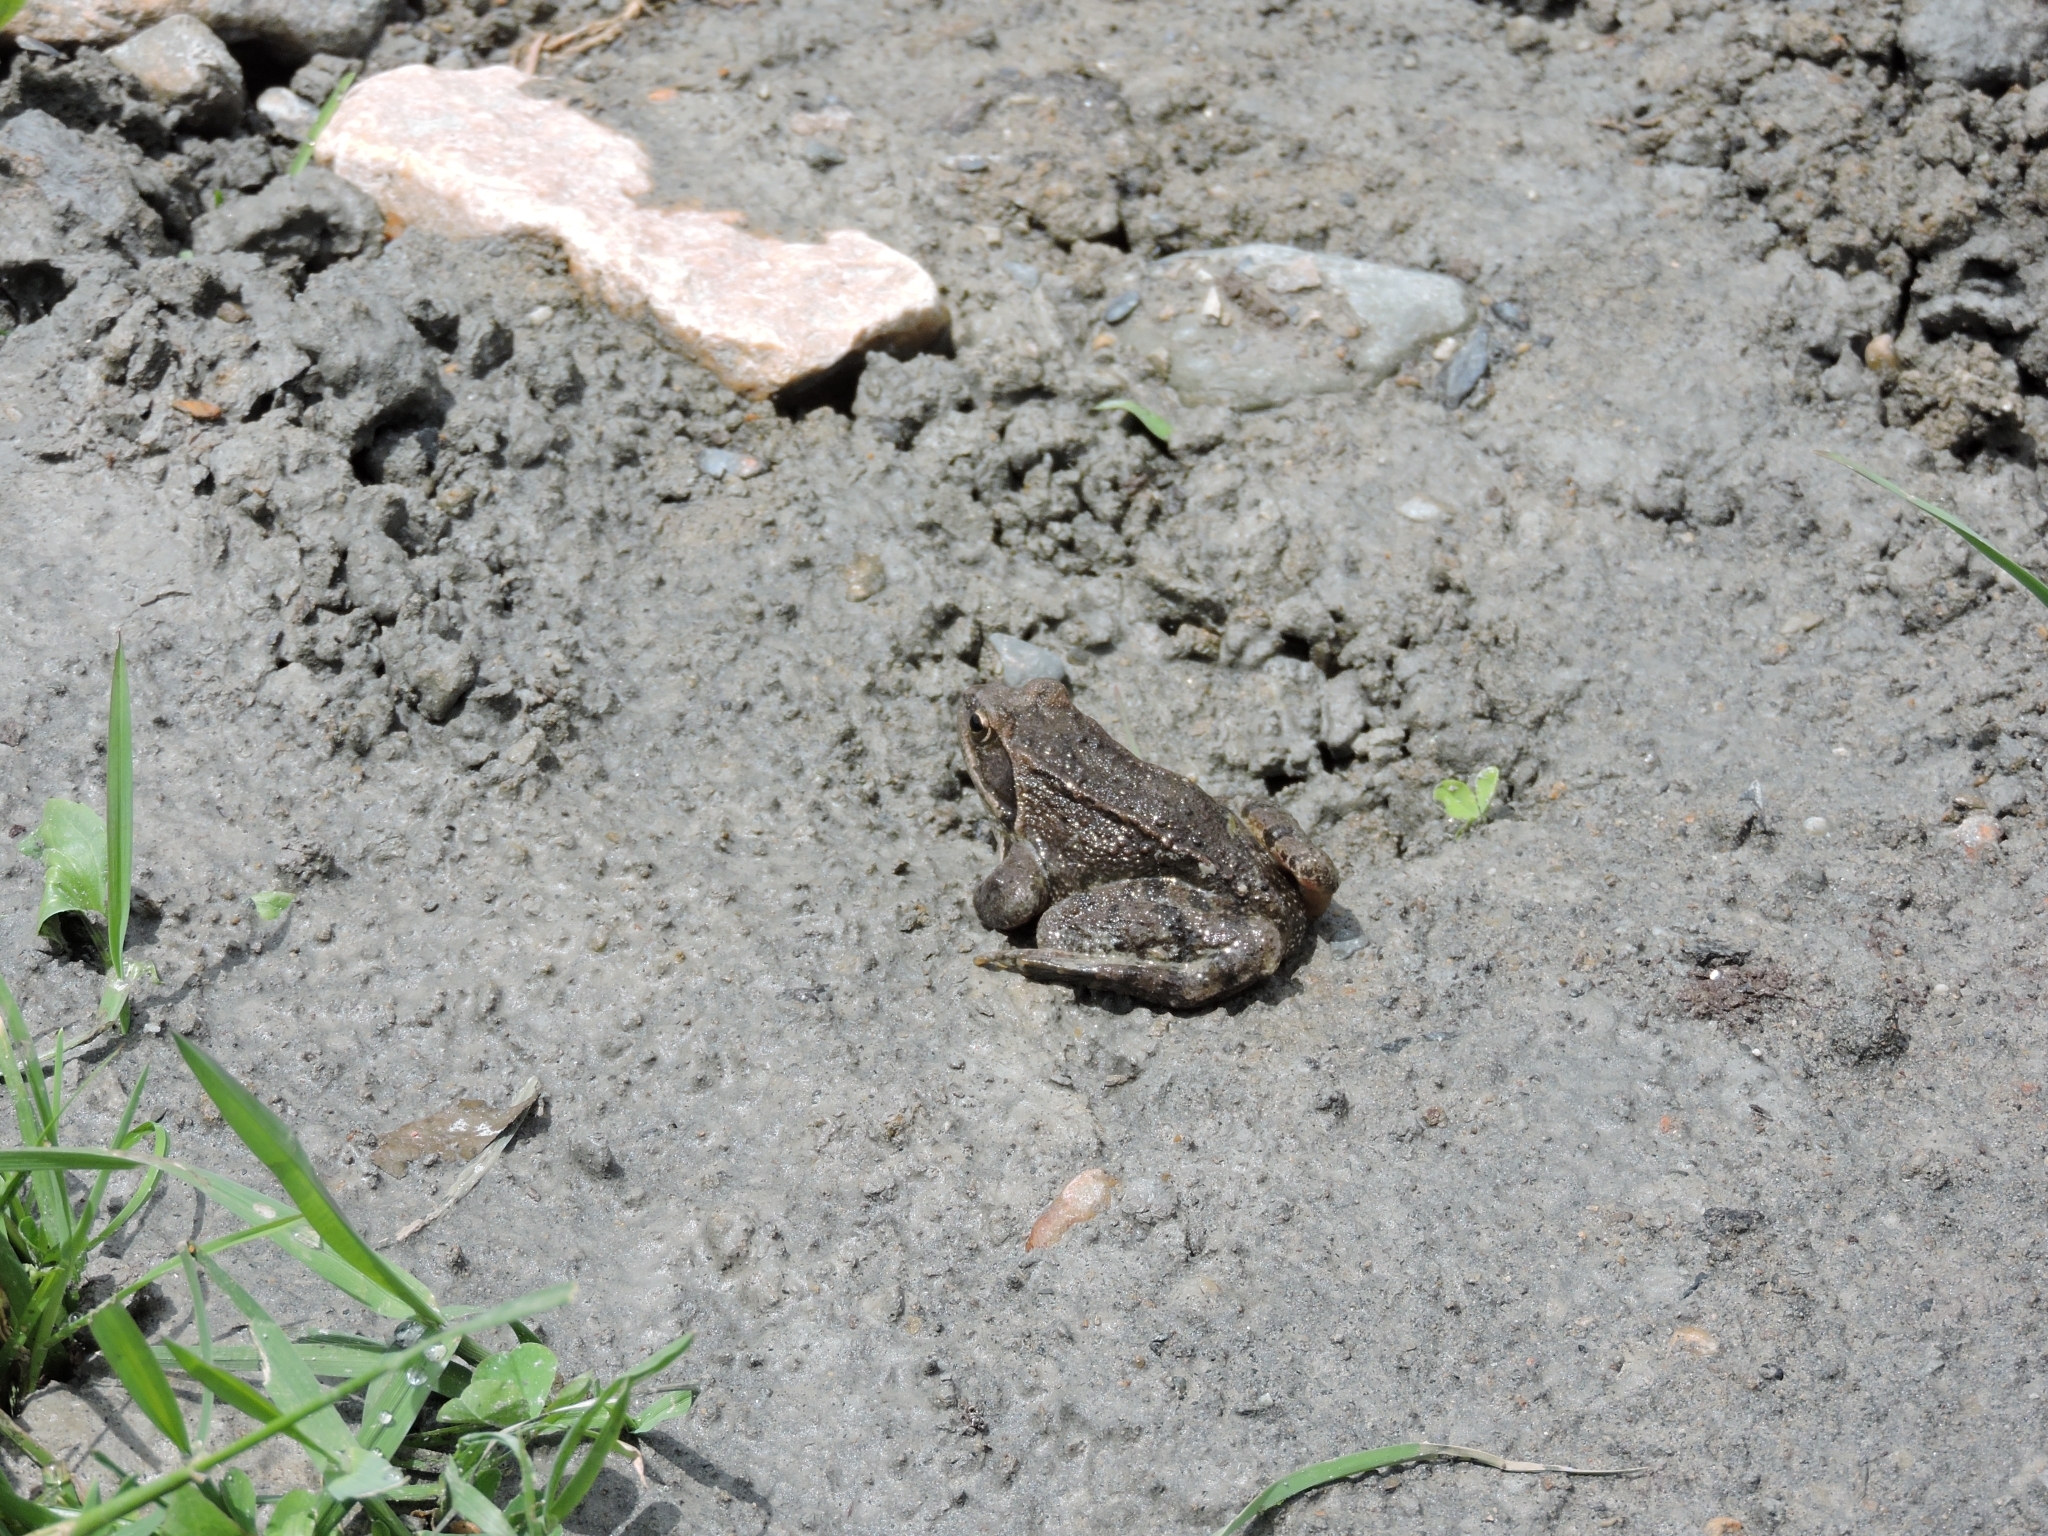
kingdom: Animalia
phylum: Chordata
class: Amphibia
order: Anura
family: Ranidae
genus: Rana
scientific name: Rana macrocnemis
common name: Banded frog
